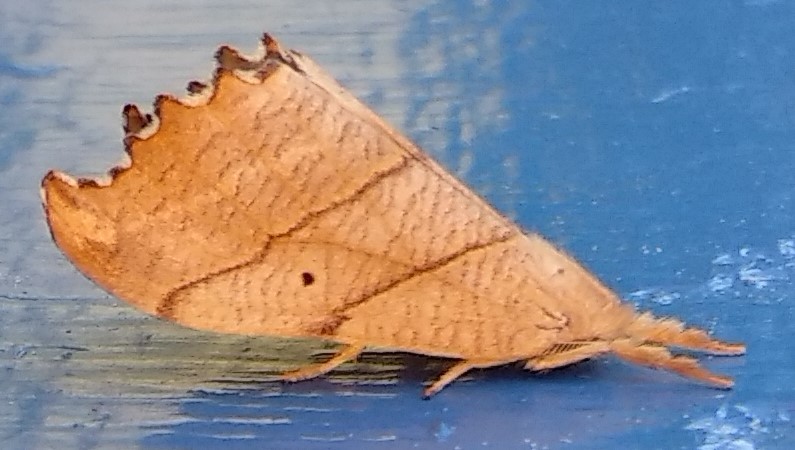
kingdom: Animalia
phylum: Arthropoda
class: Insecta
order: Lepidoptera
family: Drepanidae
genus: Falcaria
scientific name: Falcaria bilineata
